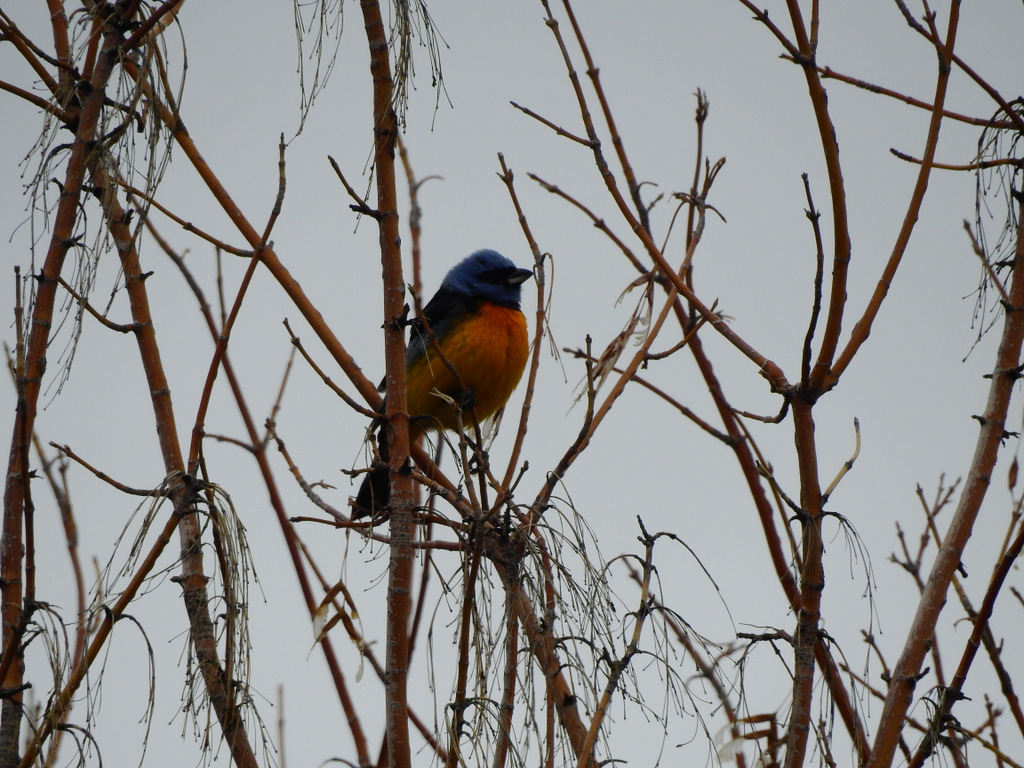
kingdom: Animalia
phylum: Chordata
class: Aves
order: Passeriformes
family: Thraupidae
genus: Rauenia
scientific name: Rauenia bonariensis
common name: Blue-and-yellow tanager
